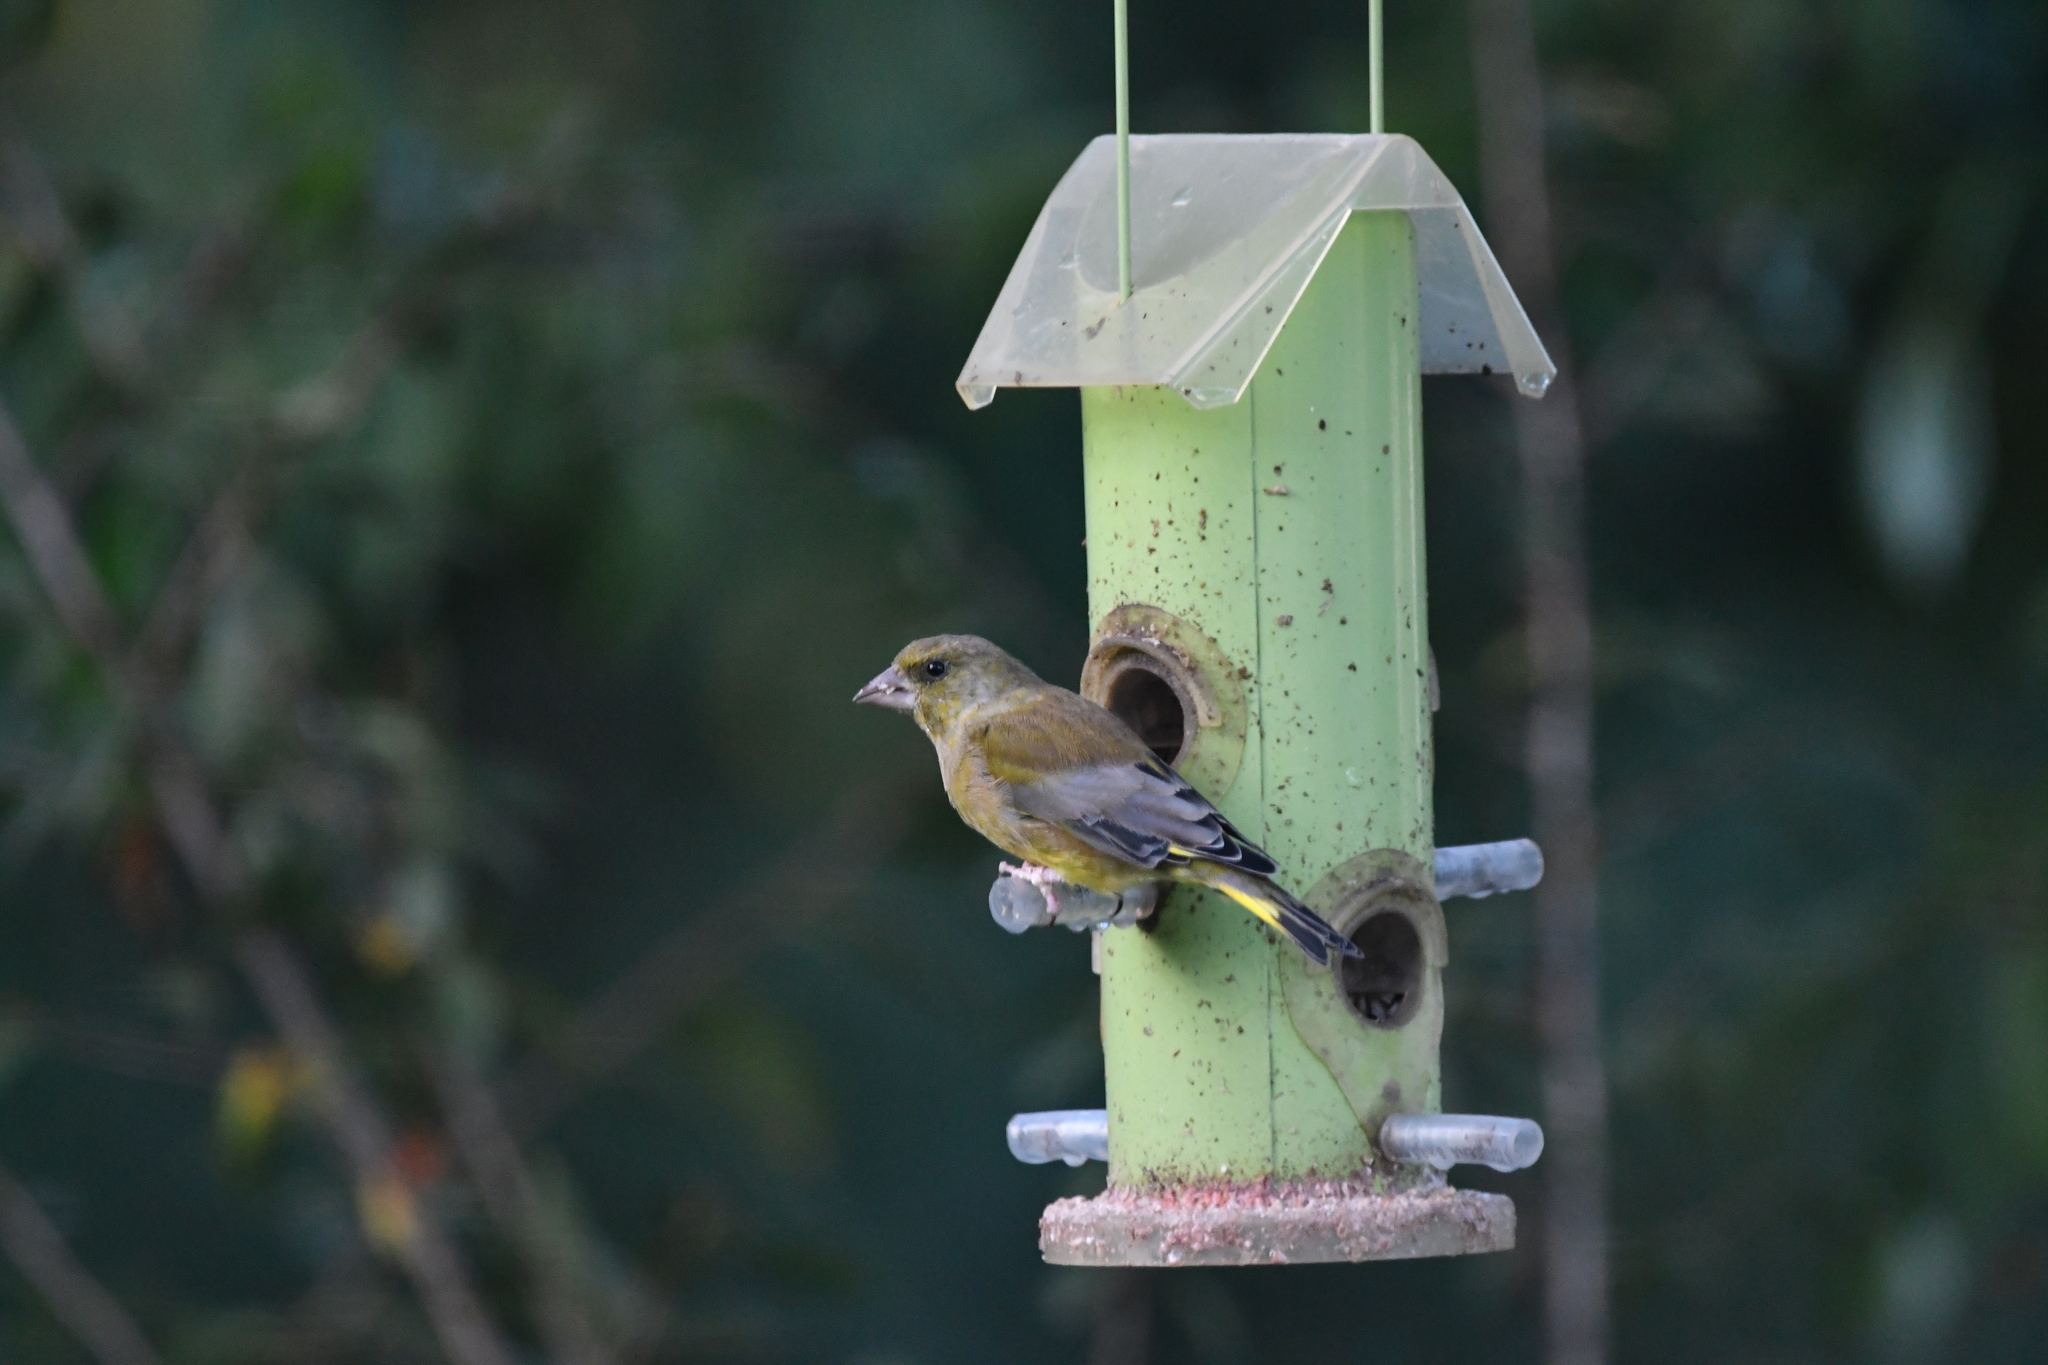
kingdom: Plantae
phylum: Tracheophyta
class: Liliopsida
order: Poales
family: Poaceae
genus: Chloris
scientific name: Chloris chloris
